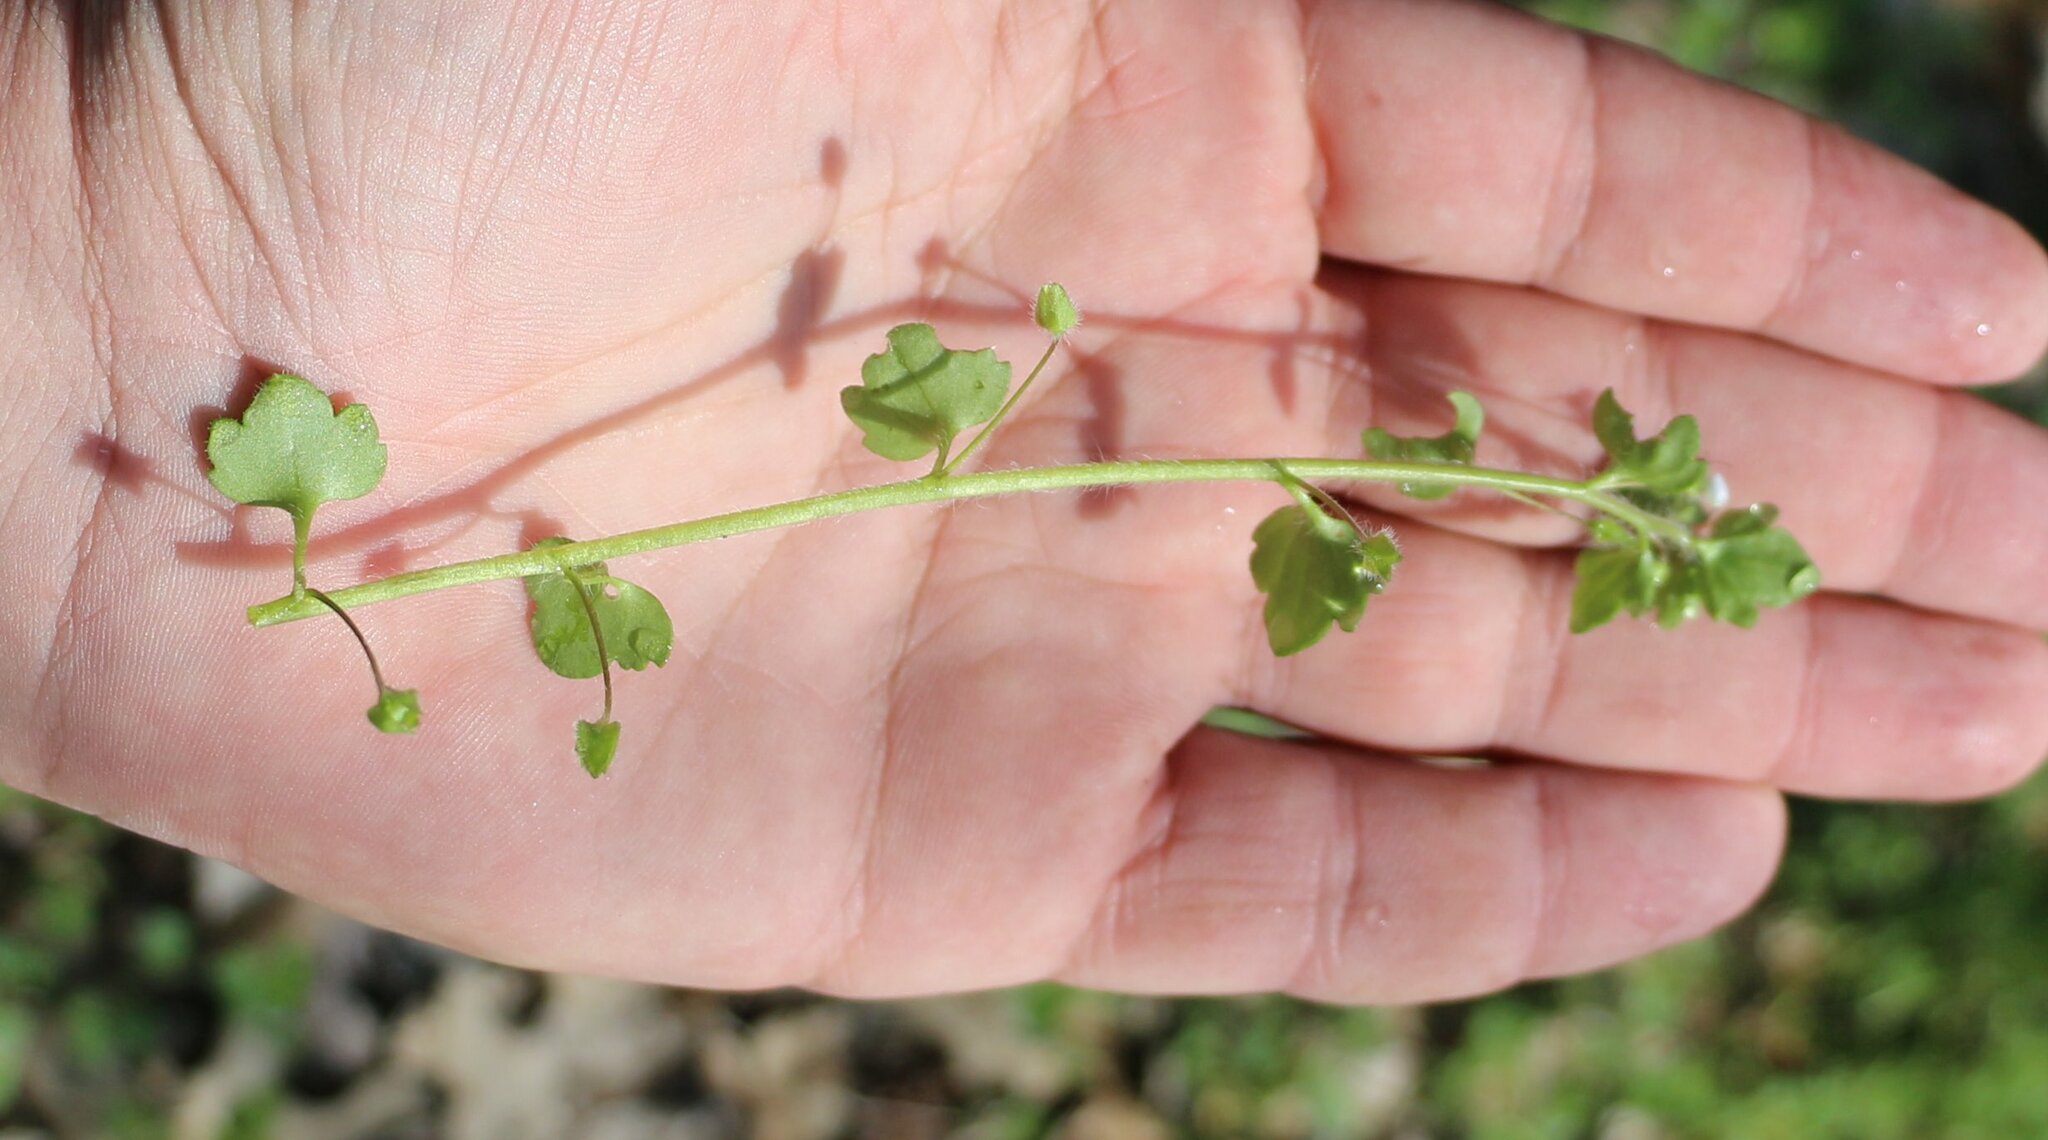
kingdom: Plantae
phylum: Tracheophyta
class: Magnoliopsida
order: Lamiales
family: Plantaginaceae
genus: Veronica
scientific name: Veronica sublobata
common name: False ivy-leaved speedwell
